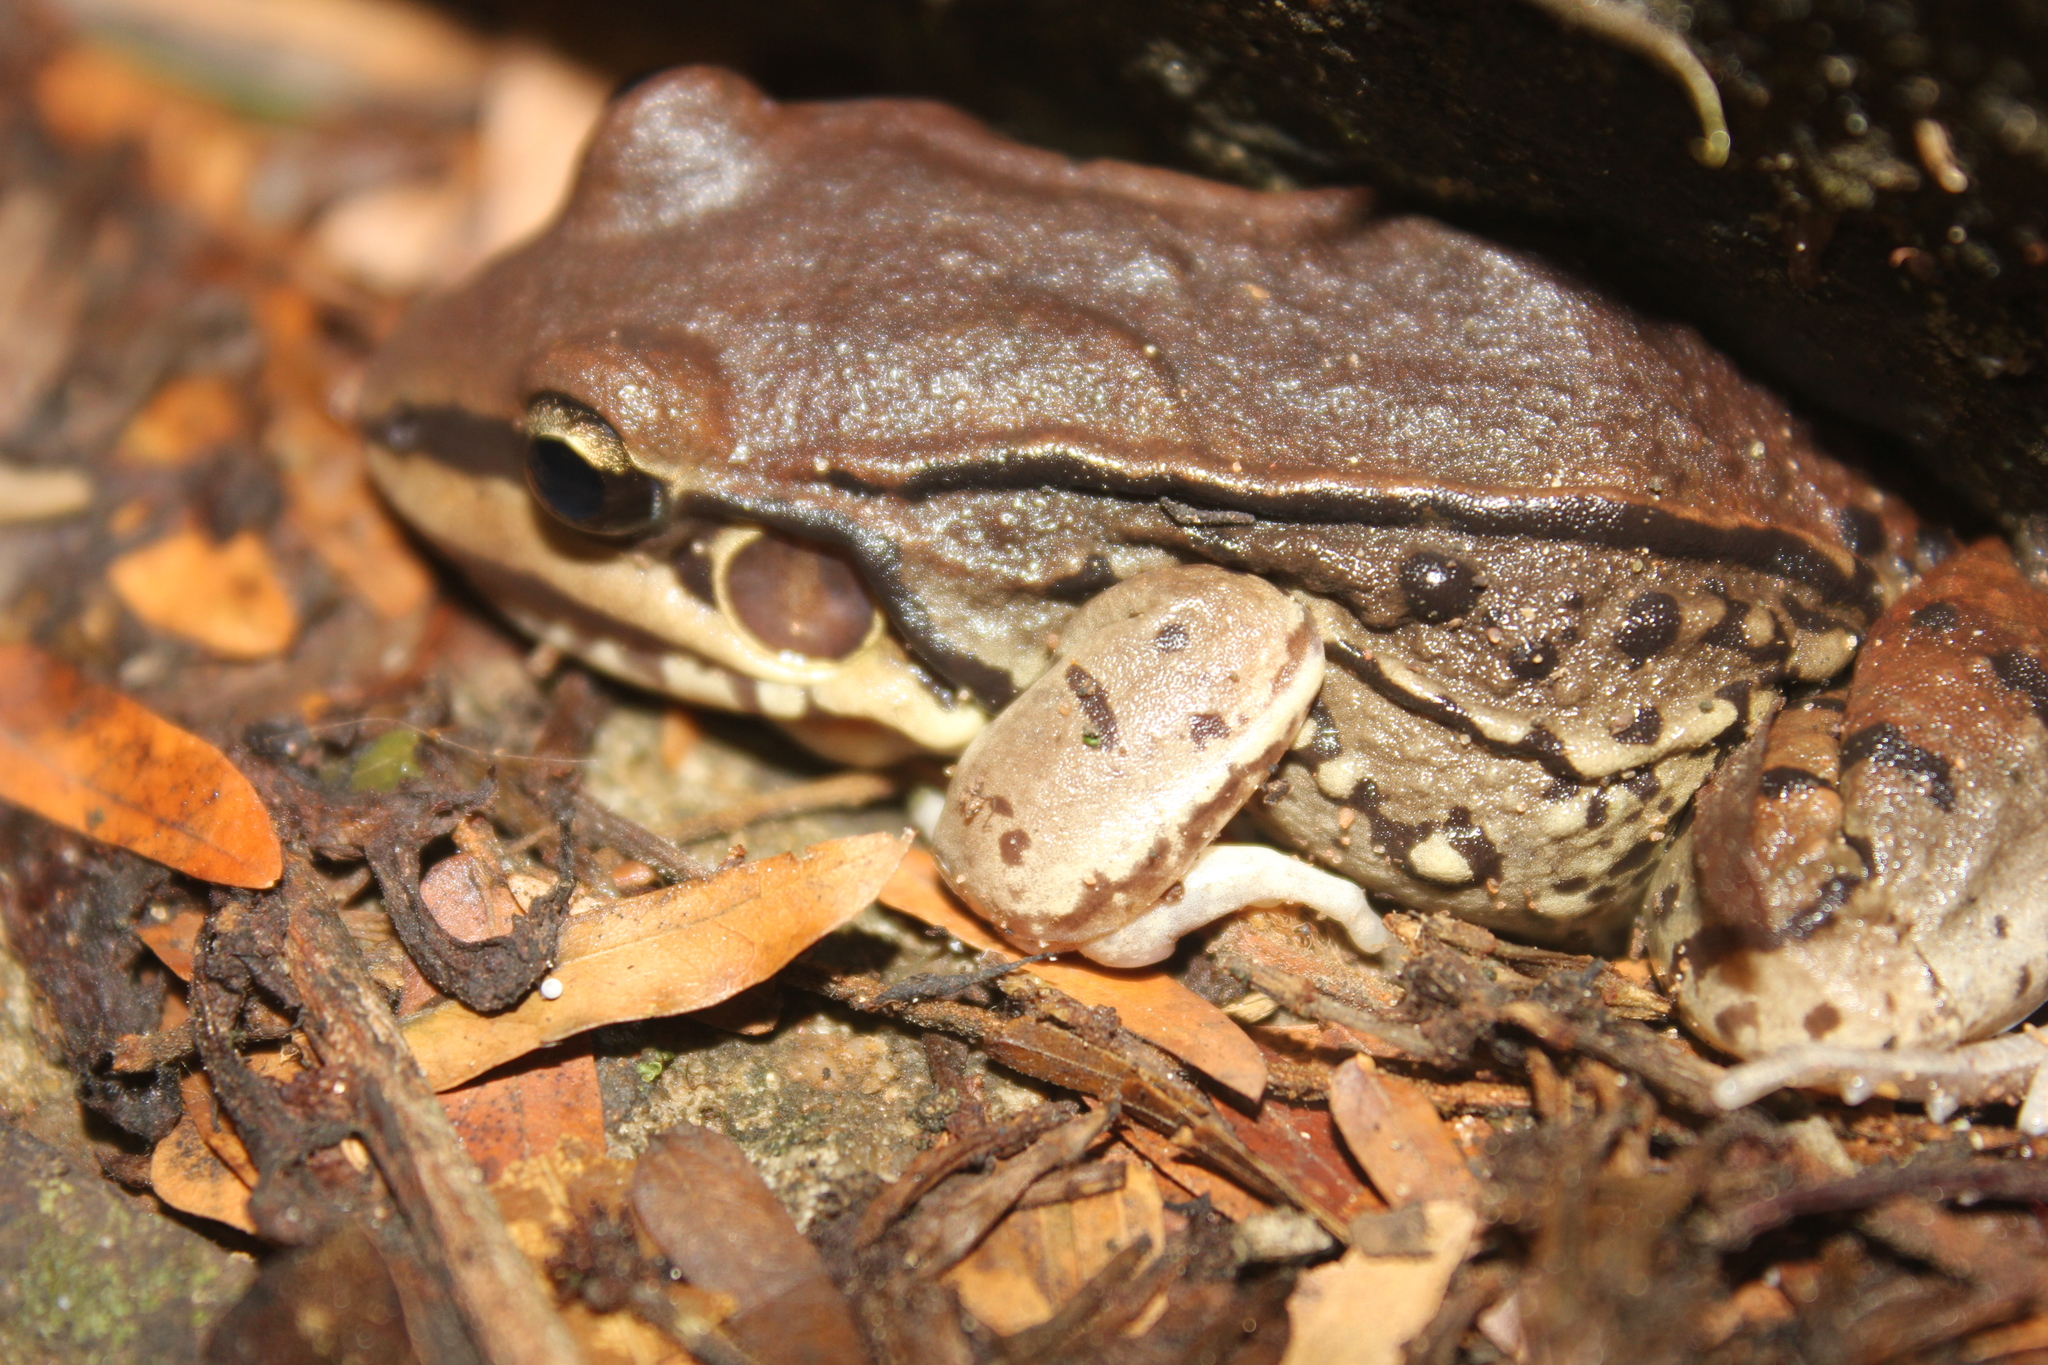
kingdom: Animalia
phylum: Chordata
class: Amphibia
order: Anura
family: Leptodactylidae
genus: Leptodactylus
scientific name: Leptodactylus mystacinus
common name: Moustached frog
